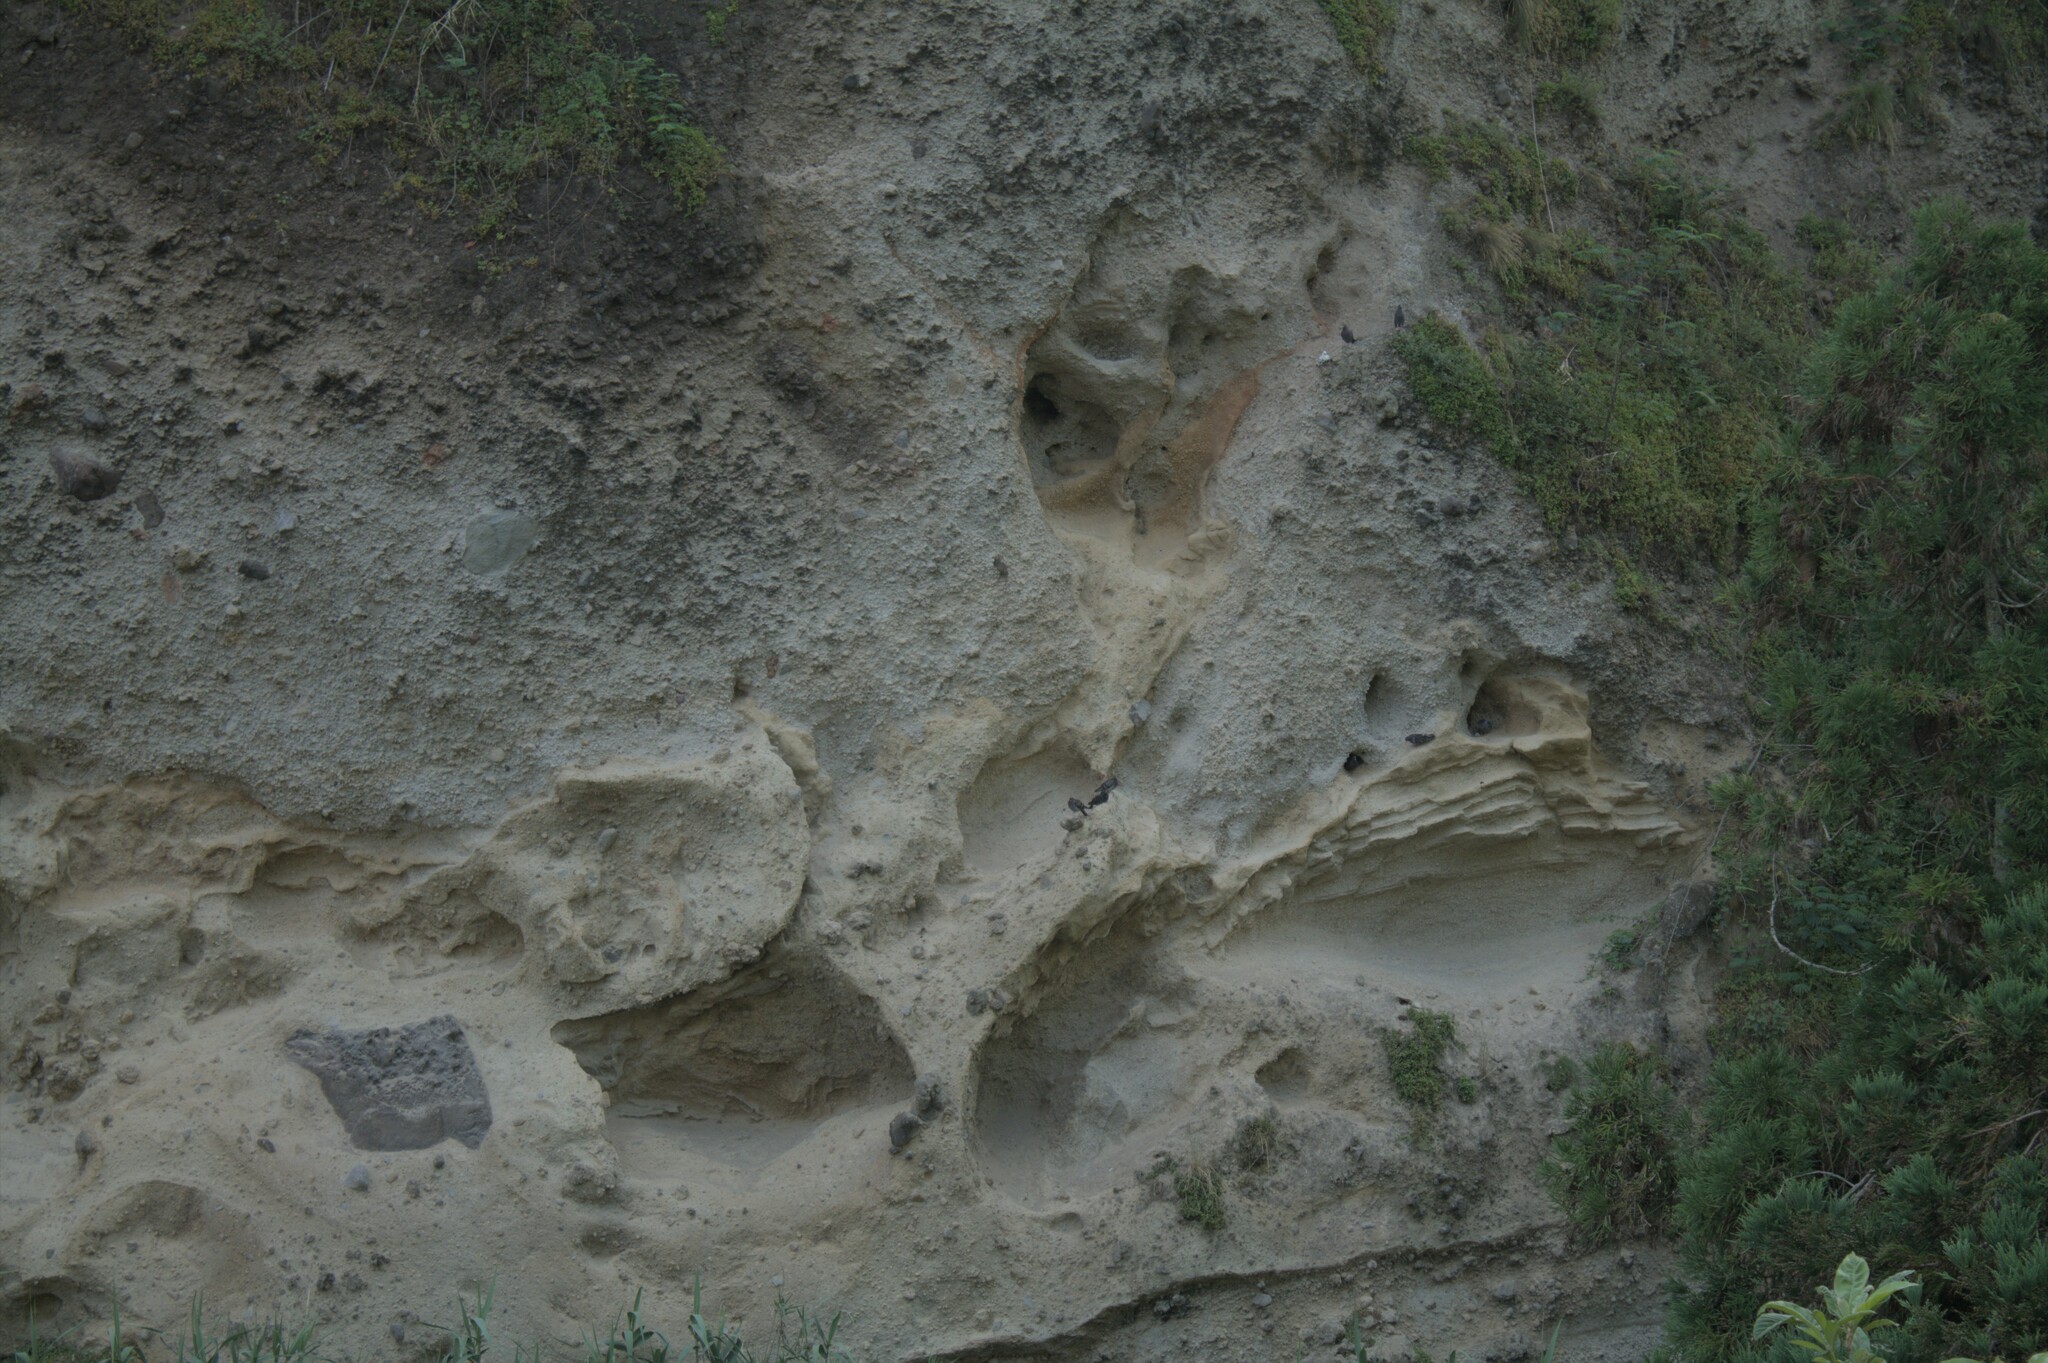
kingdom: Animalia
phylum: Chordata
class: Aves
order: Columbiformes
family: Columbidae
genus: Columba
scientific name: Columba livia
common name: Rock pigeon
